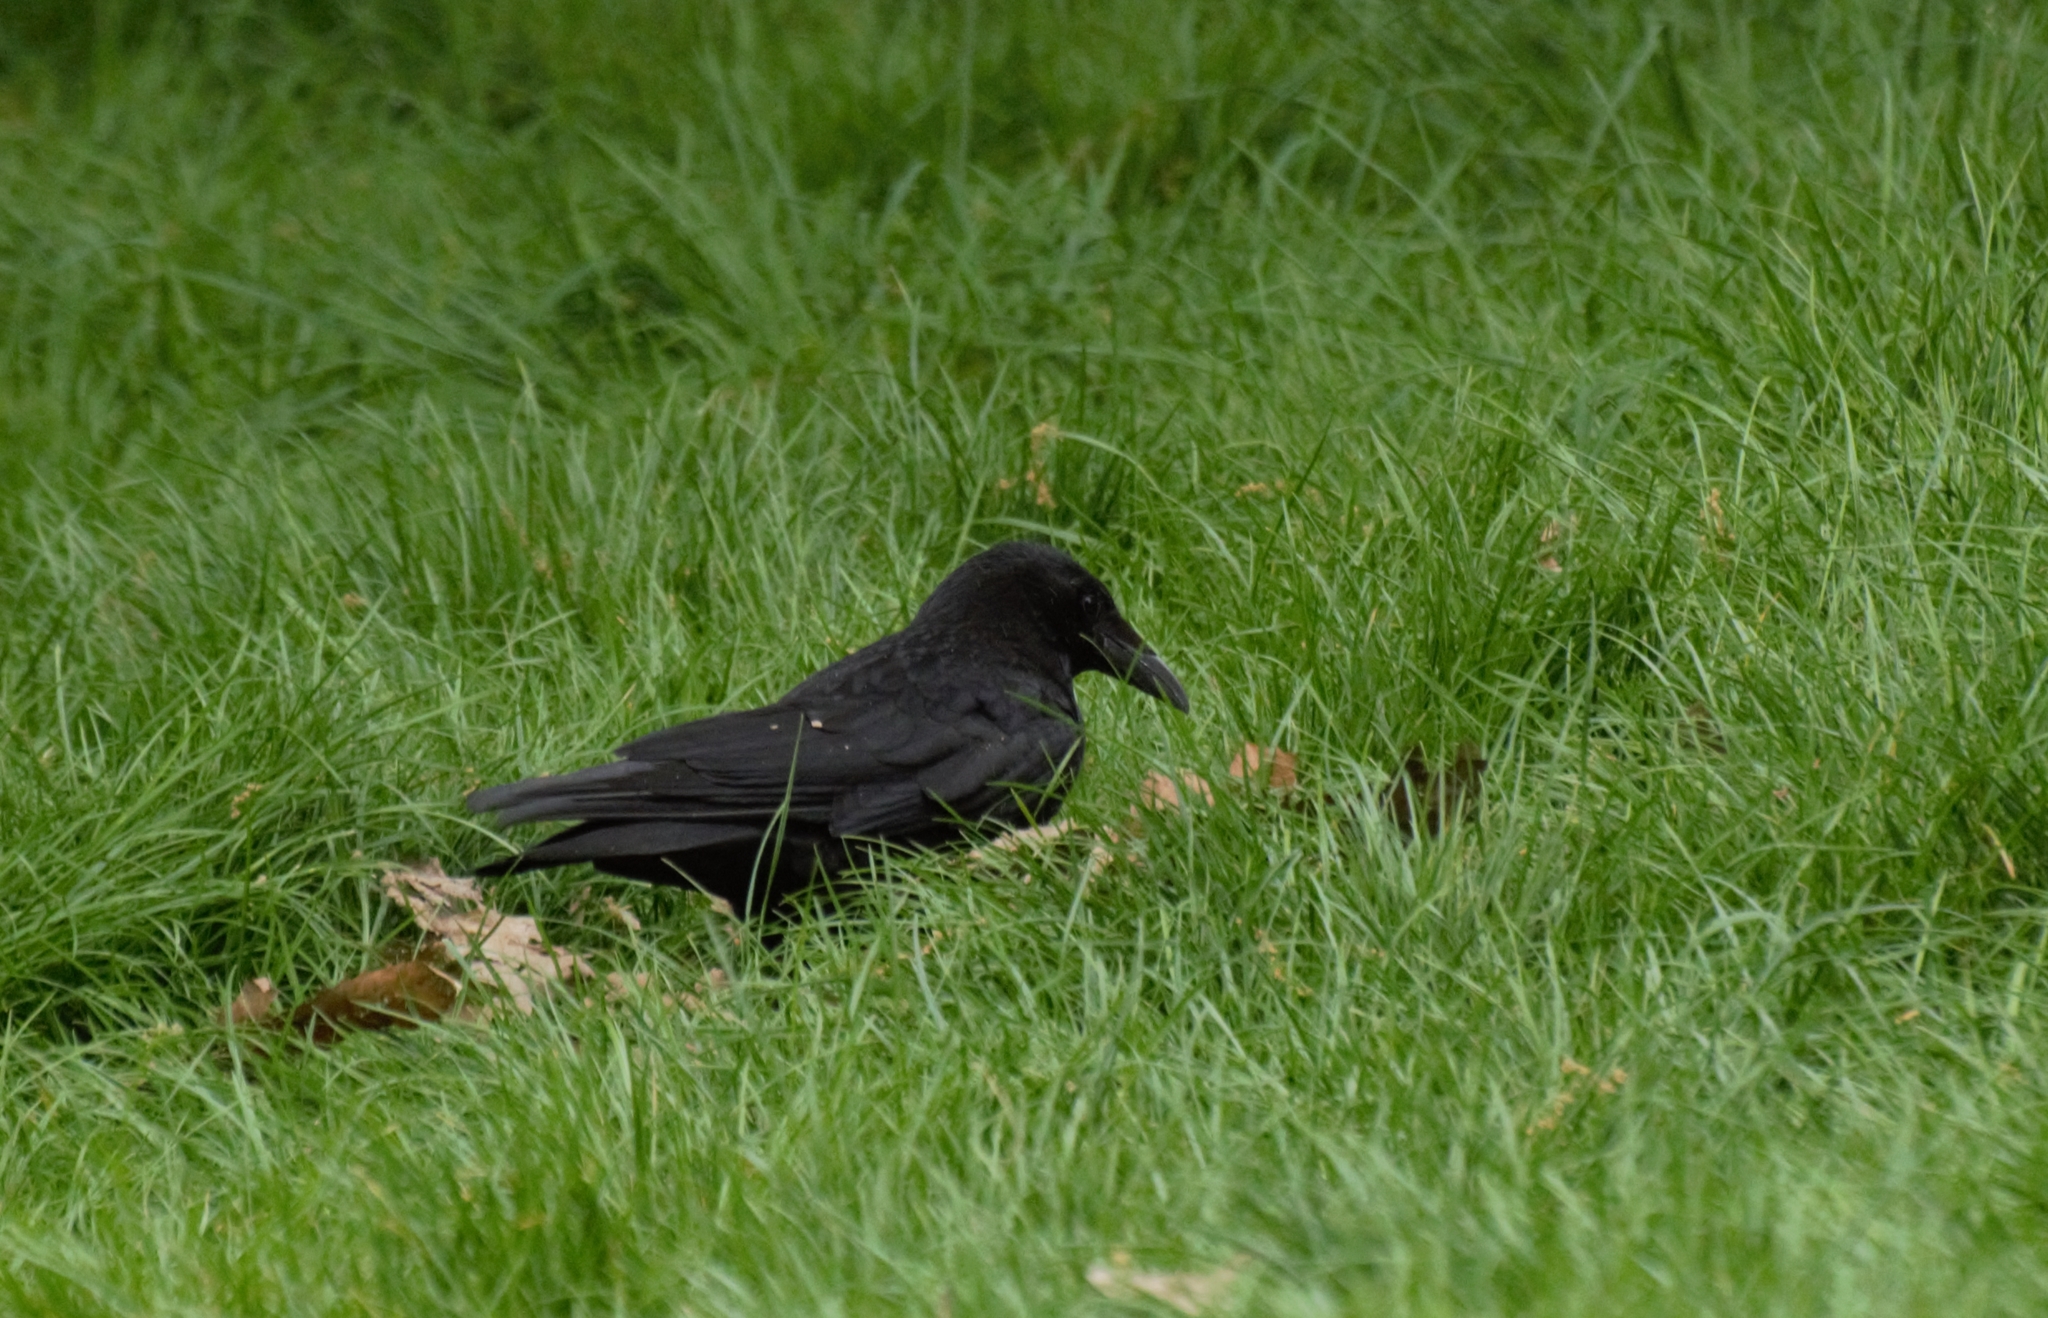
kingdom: Animalia
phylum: Chordata
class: Aves
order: Passeriformes
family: Corvidae
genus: Corvus
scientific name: Corvus corone
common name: Carrion crow
